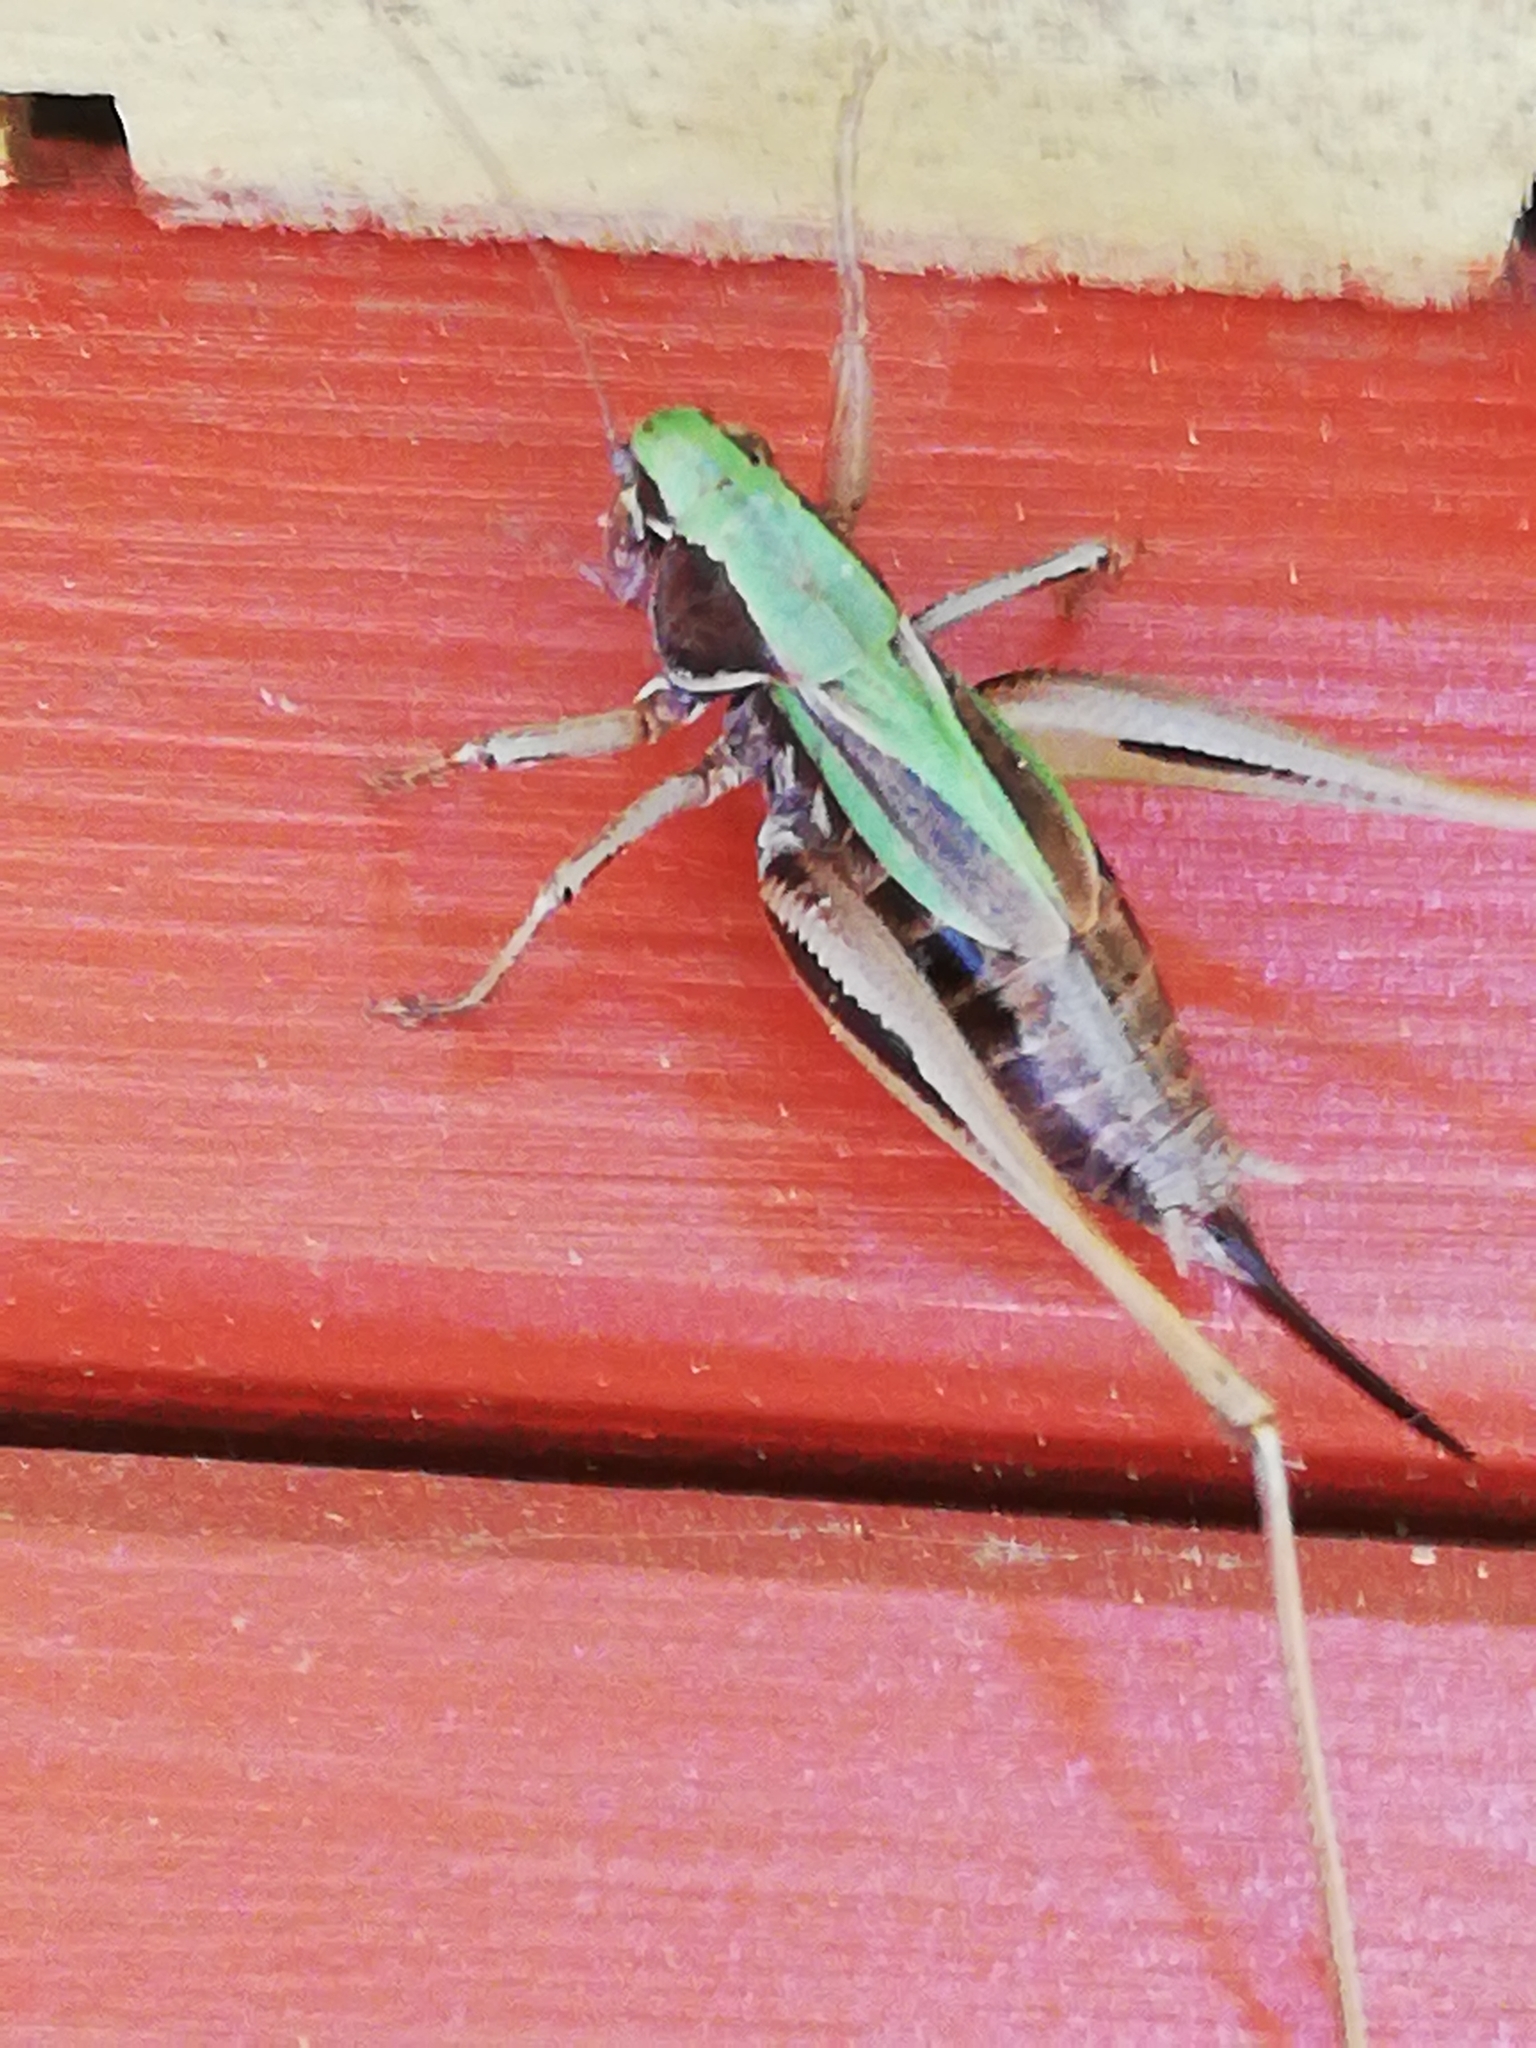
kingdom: Animalia
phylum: Arthropoda
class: Insecta
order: Orthoptera
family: Tettigoniidae
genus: Metrioptera
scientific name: Metrioptera brachyptera
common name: Bog bush-cricket
